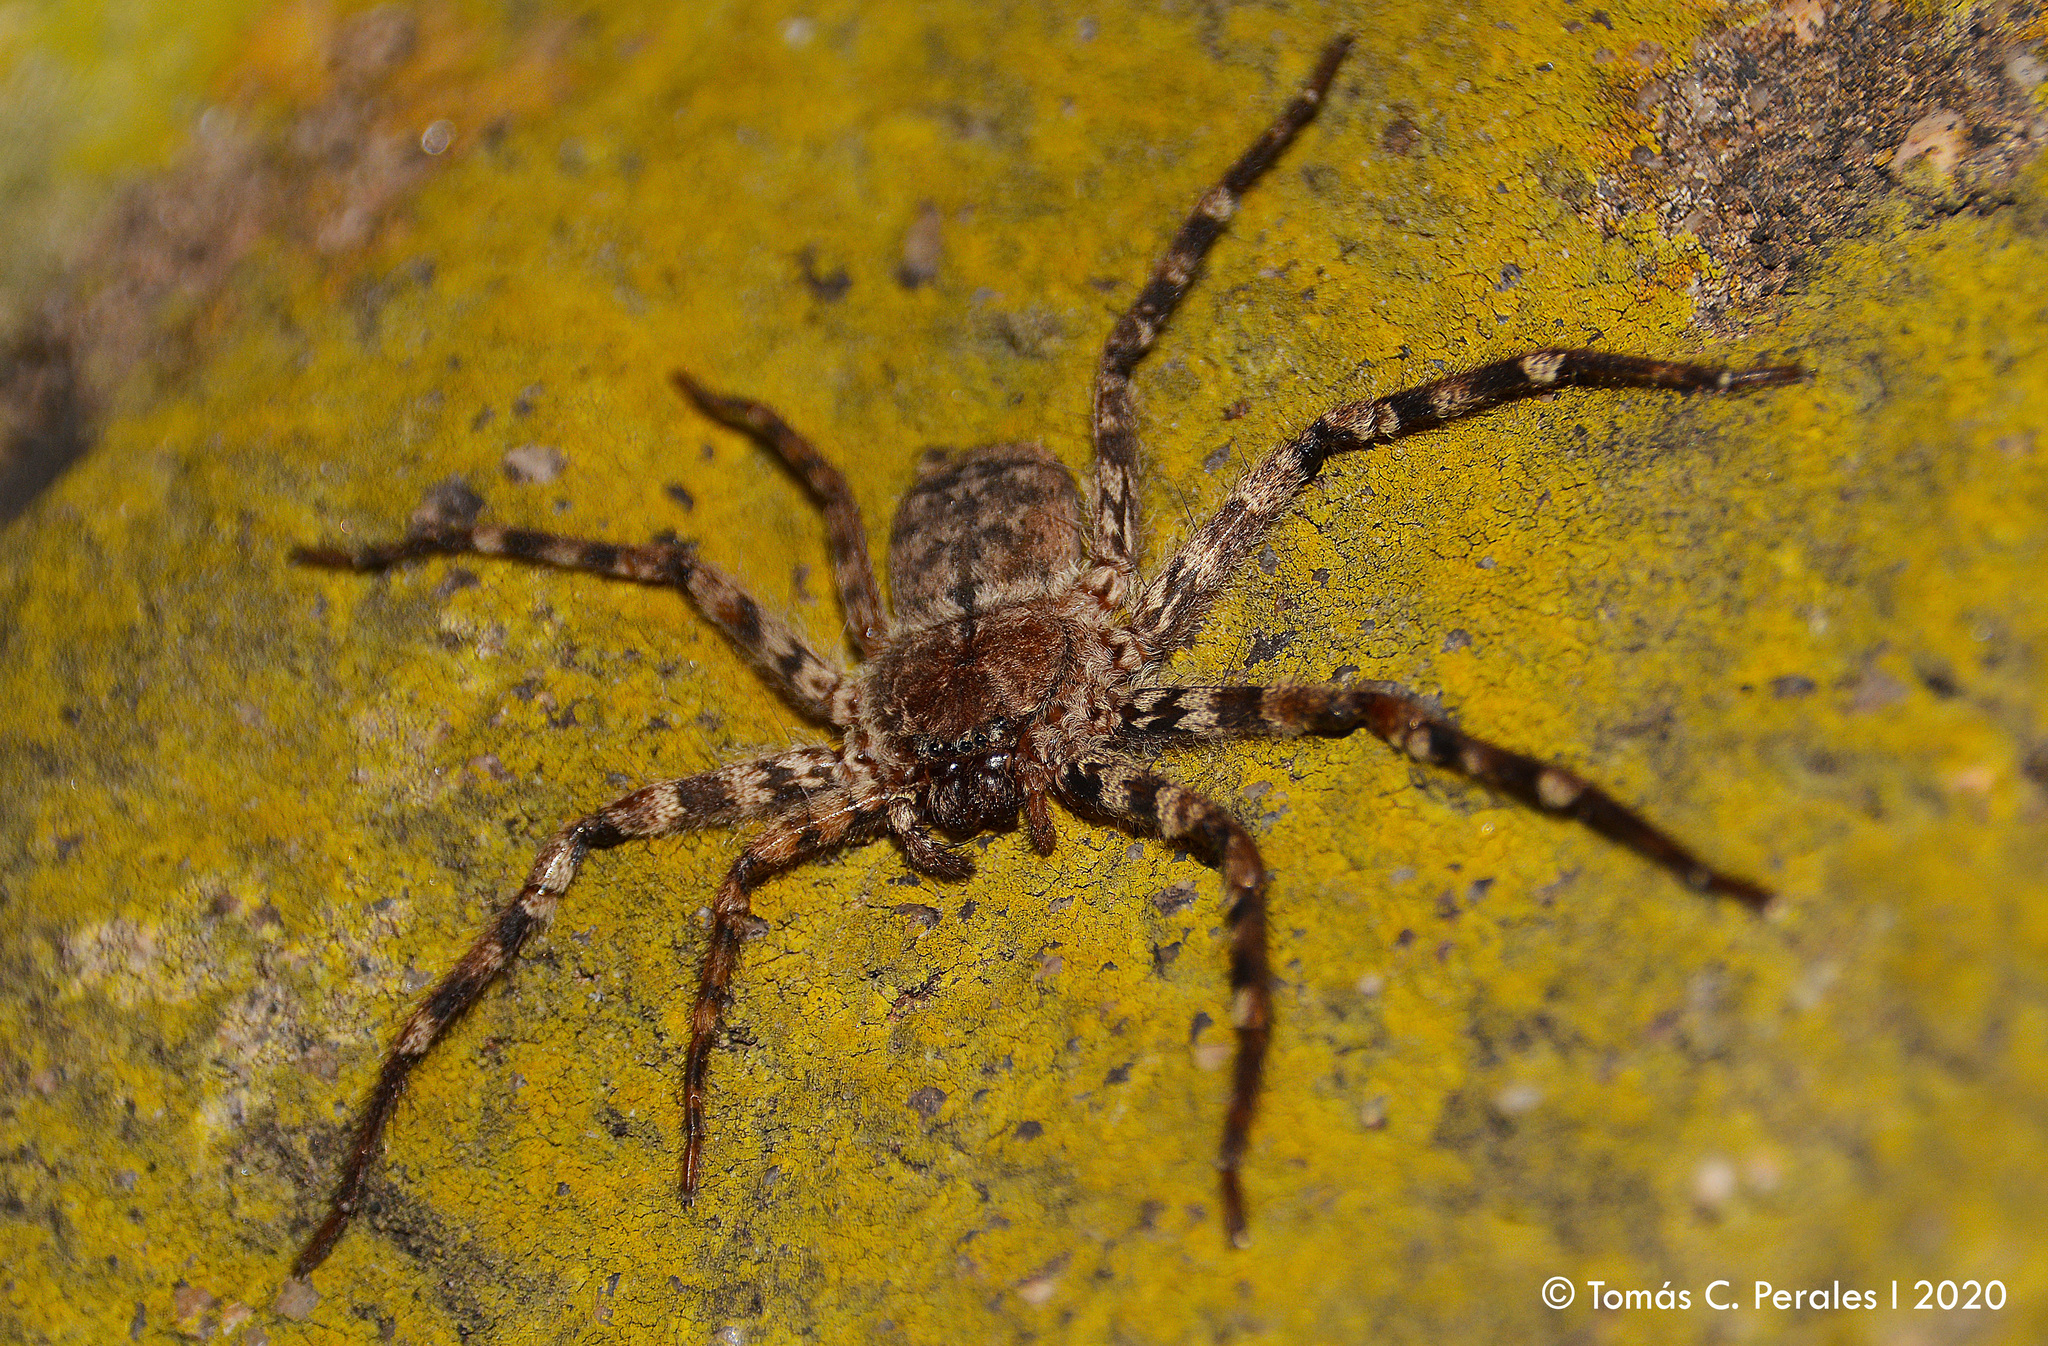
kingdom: Animalia
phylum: Arthropoda
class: Arachnida
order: Araneae
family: Selenopidae
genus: Selenops
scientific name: Selenops
